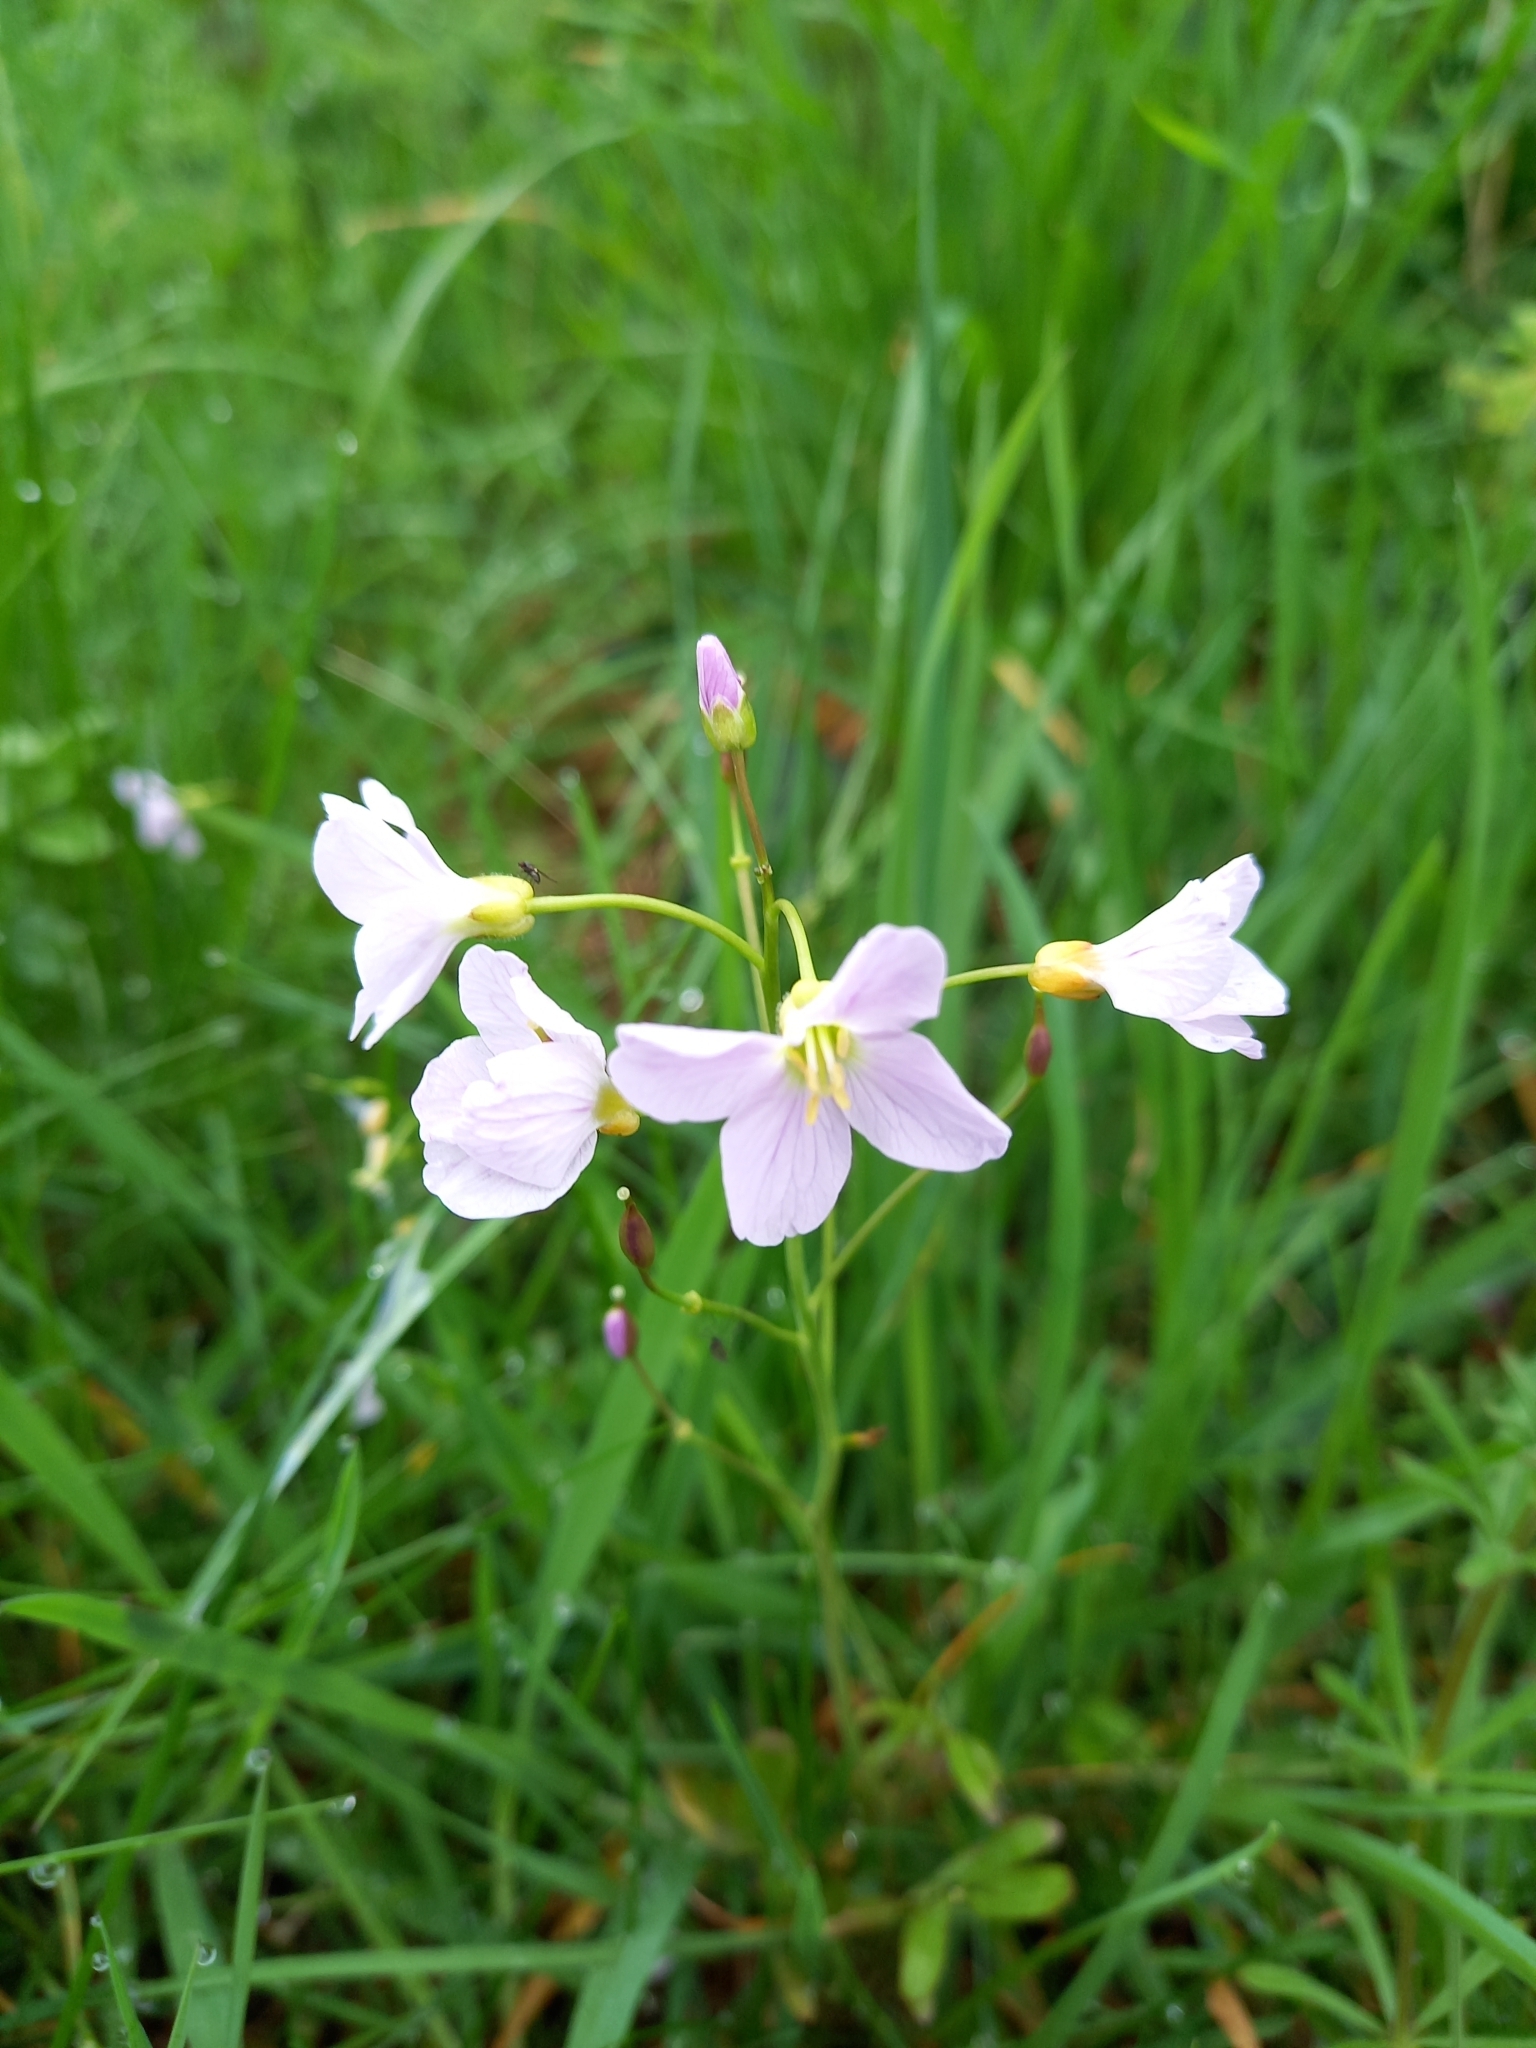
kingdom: Plantae
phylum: Tracheophyta
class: Magnoliopsida
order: Brassicales
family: Brassicaceae
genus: Cardamine
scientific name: Cardamine pratensis
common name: Cuckoo flower
